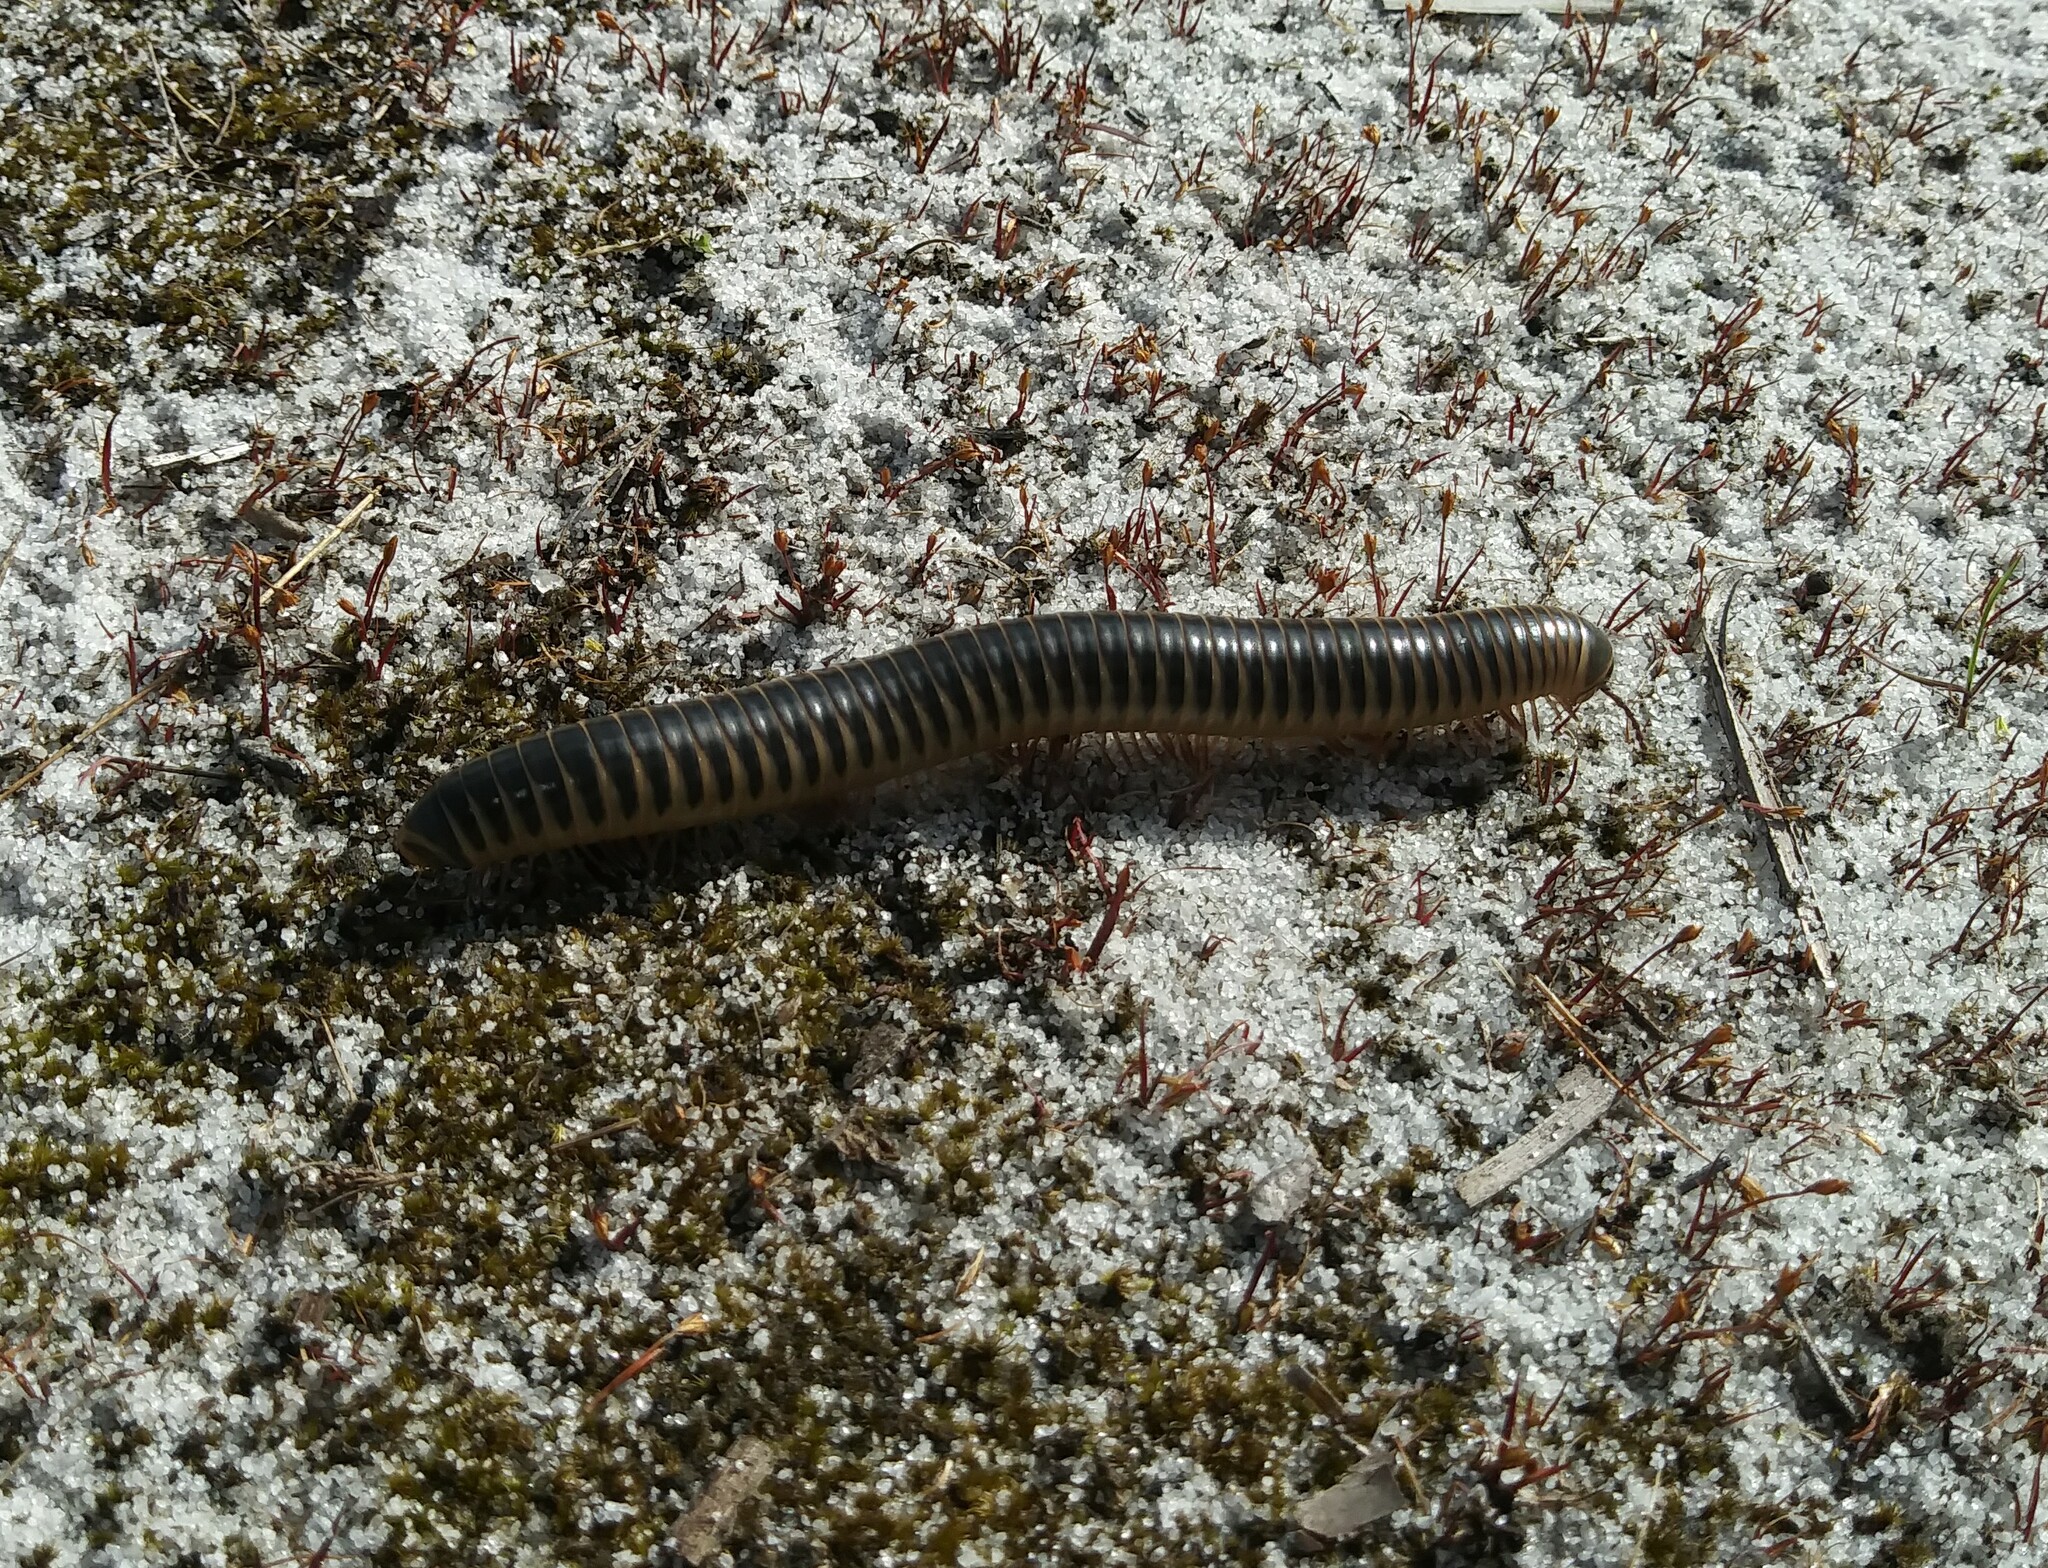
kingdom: Animalia
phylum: Arthropoda
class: Diplopoda
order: Spirobolida
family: Spirobolidae
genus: Chicobolus
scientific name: Chicobolus spinigerus
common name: Florida ivory millipede
